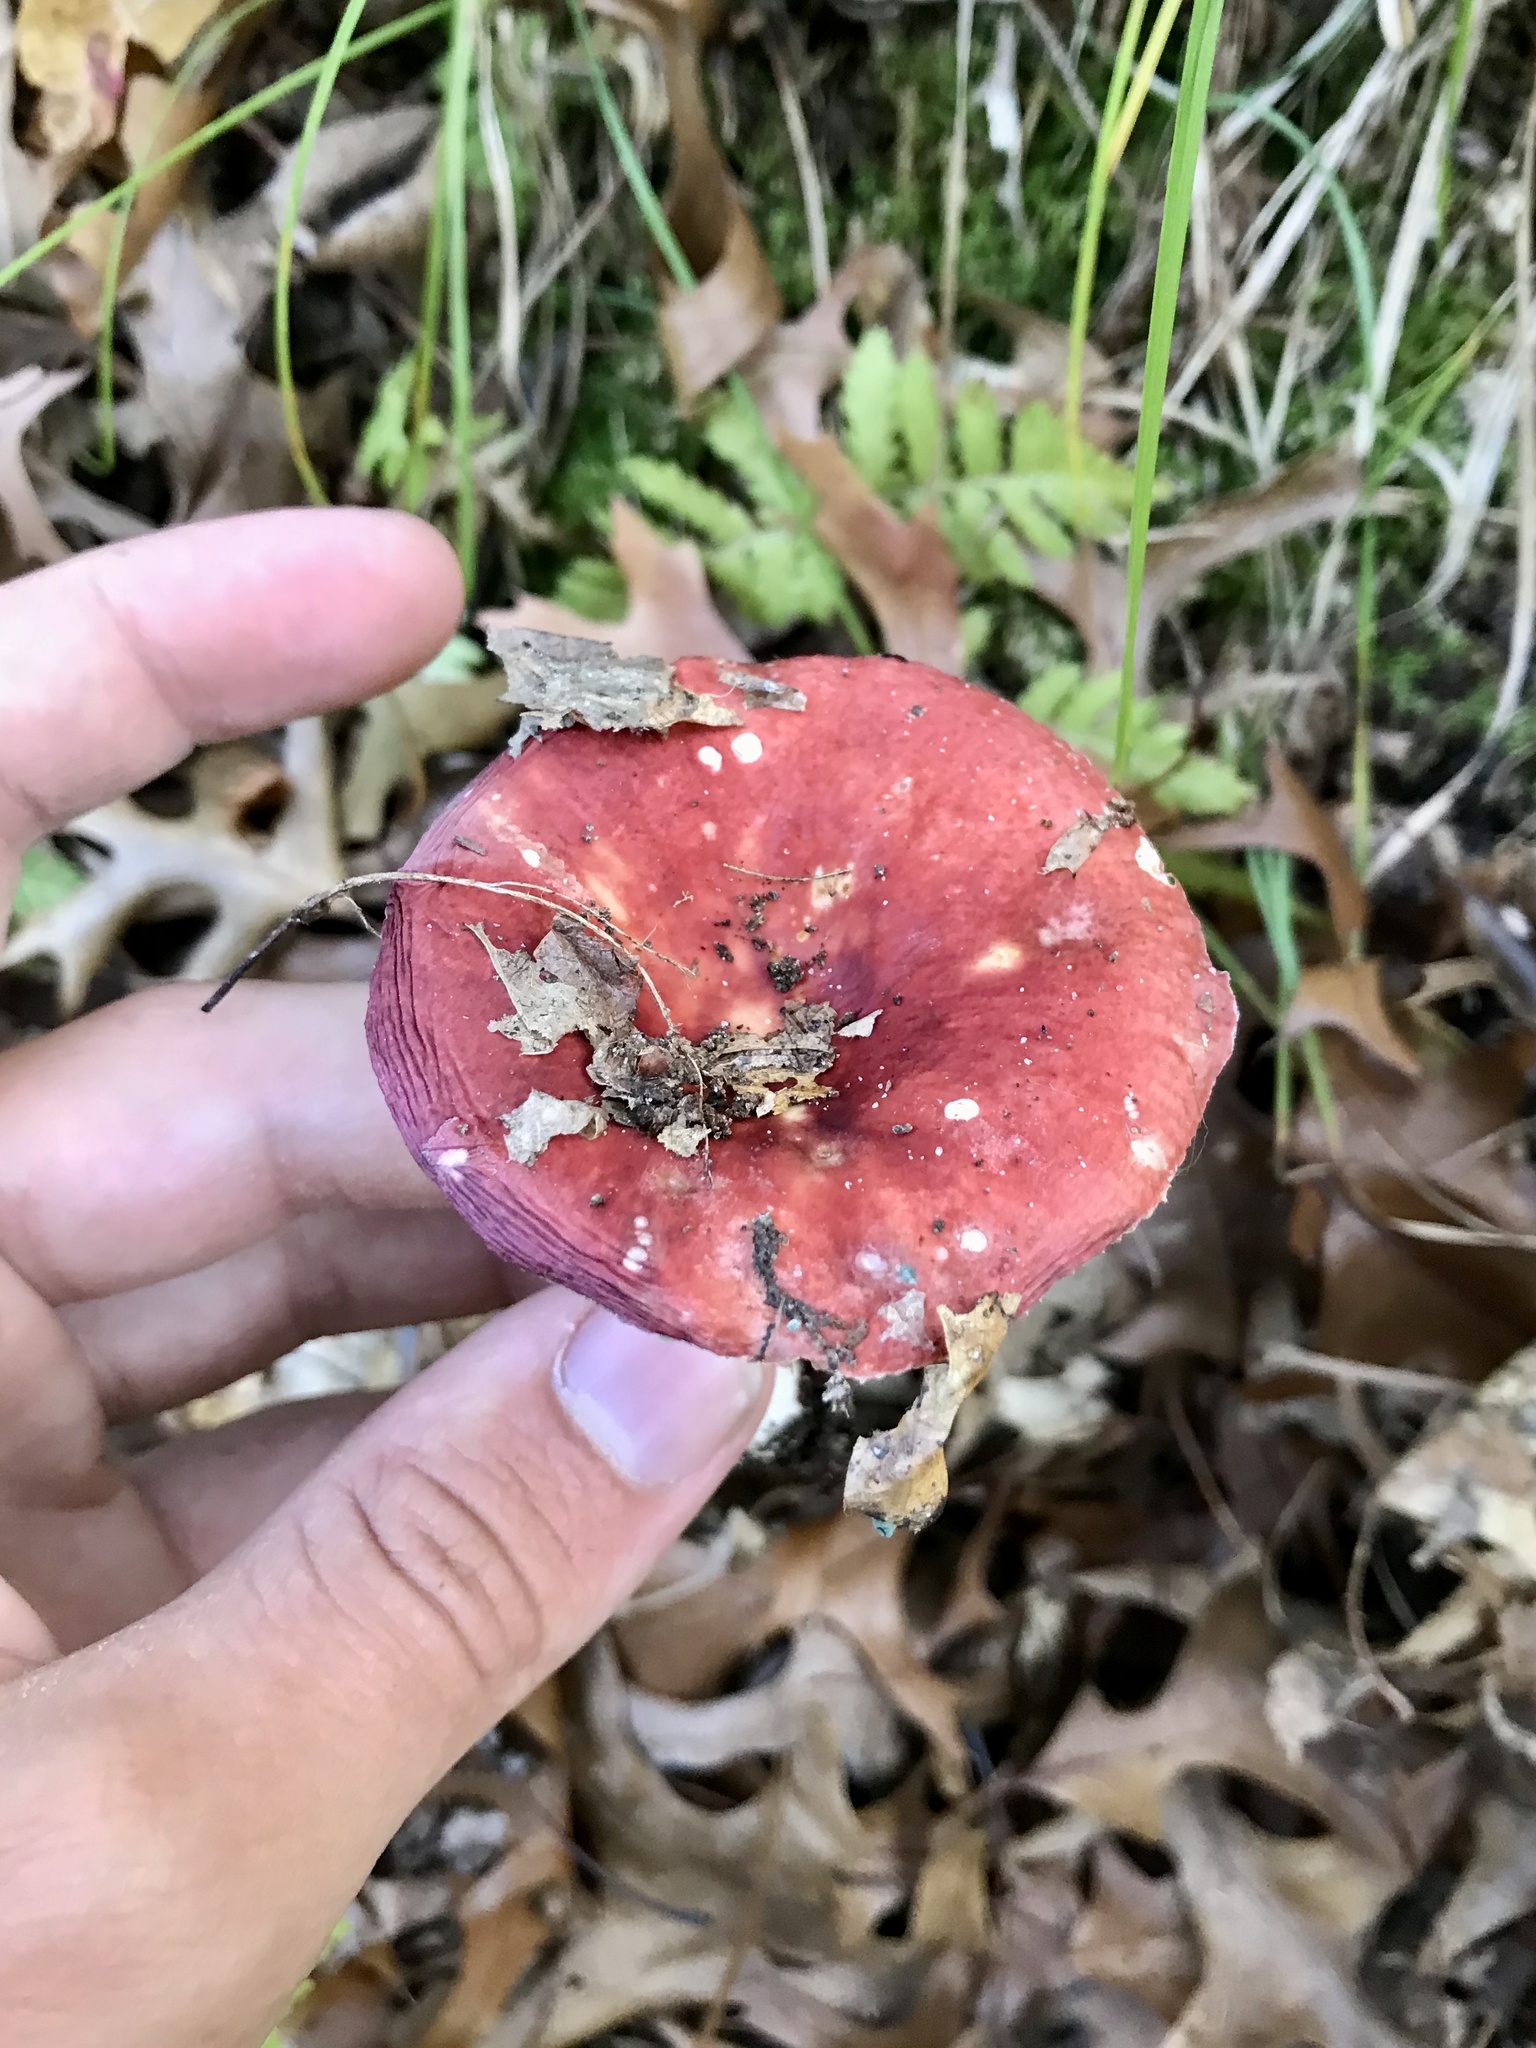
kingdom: Fungi
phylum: Basidiomycota
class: Agaricomycetes
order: Russulales
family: Russulaceae
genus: Russula
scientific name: Russula
